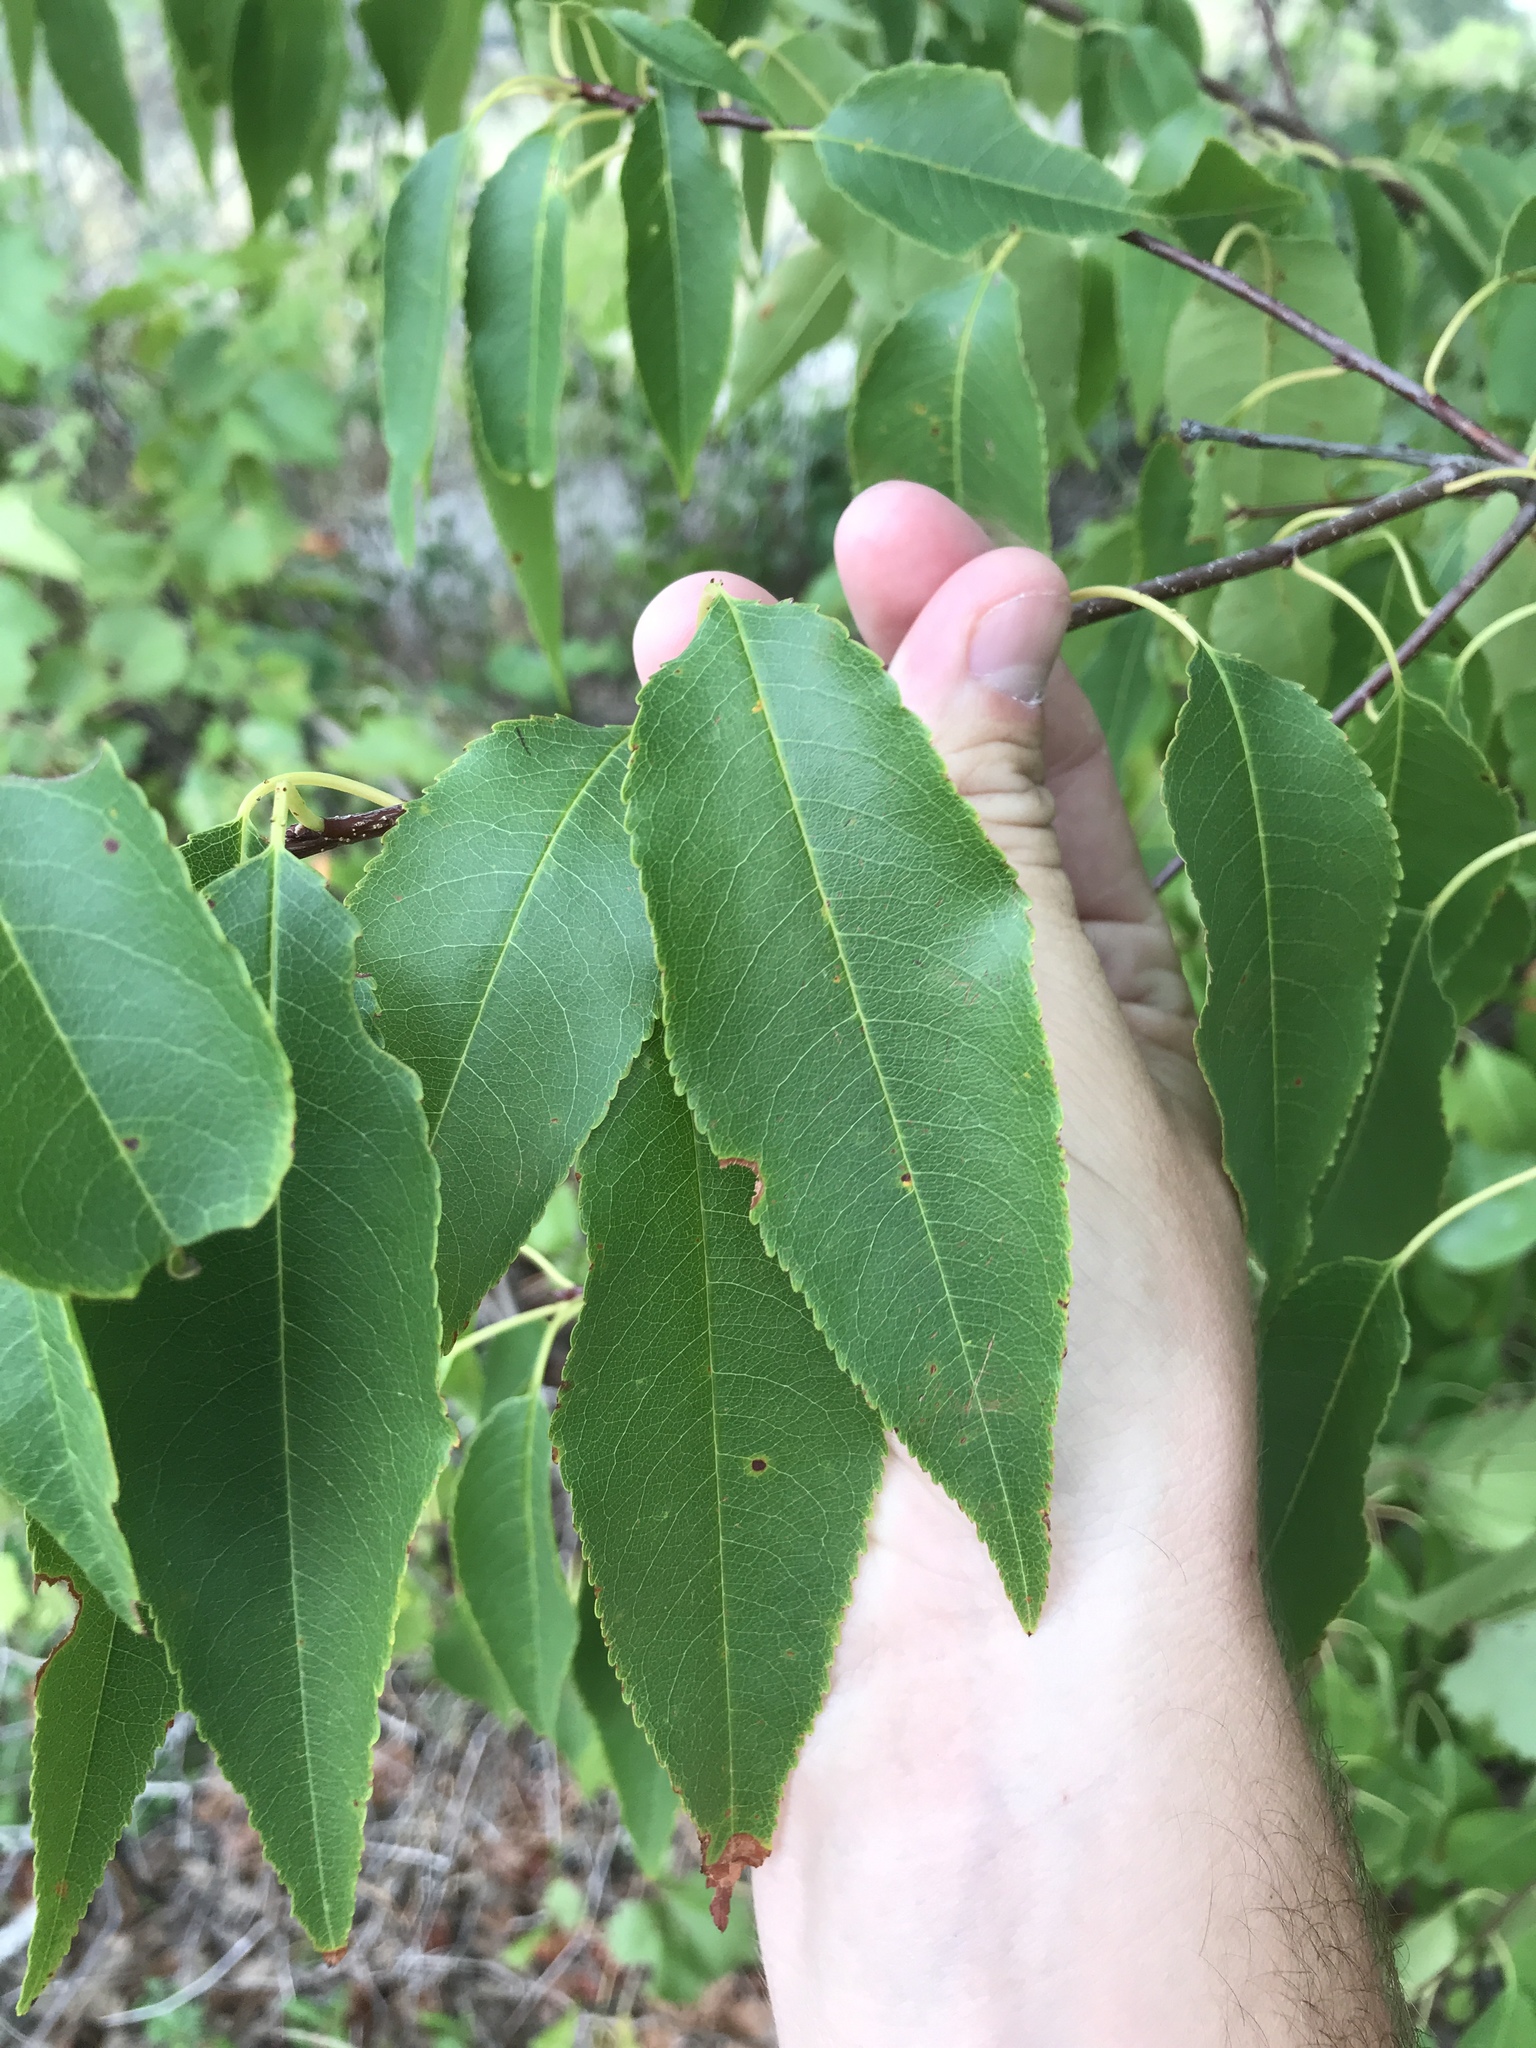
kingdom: Plantae
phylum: Tracheophyta
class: Magnoliopsida
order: Rosales
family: Rosaceae
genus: Prunus
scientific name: Prunus serotina
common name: Black cherry
